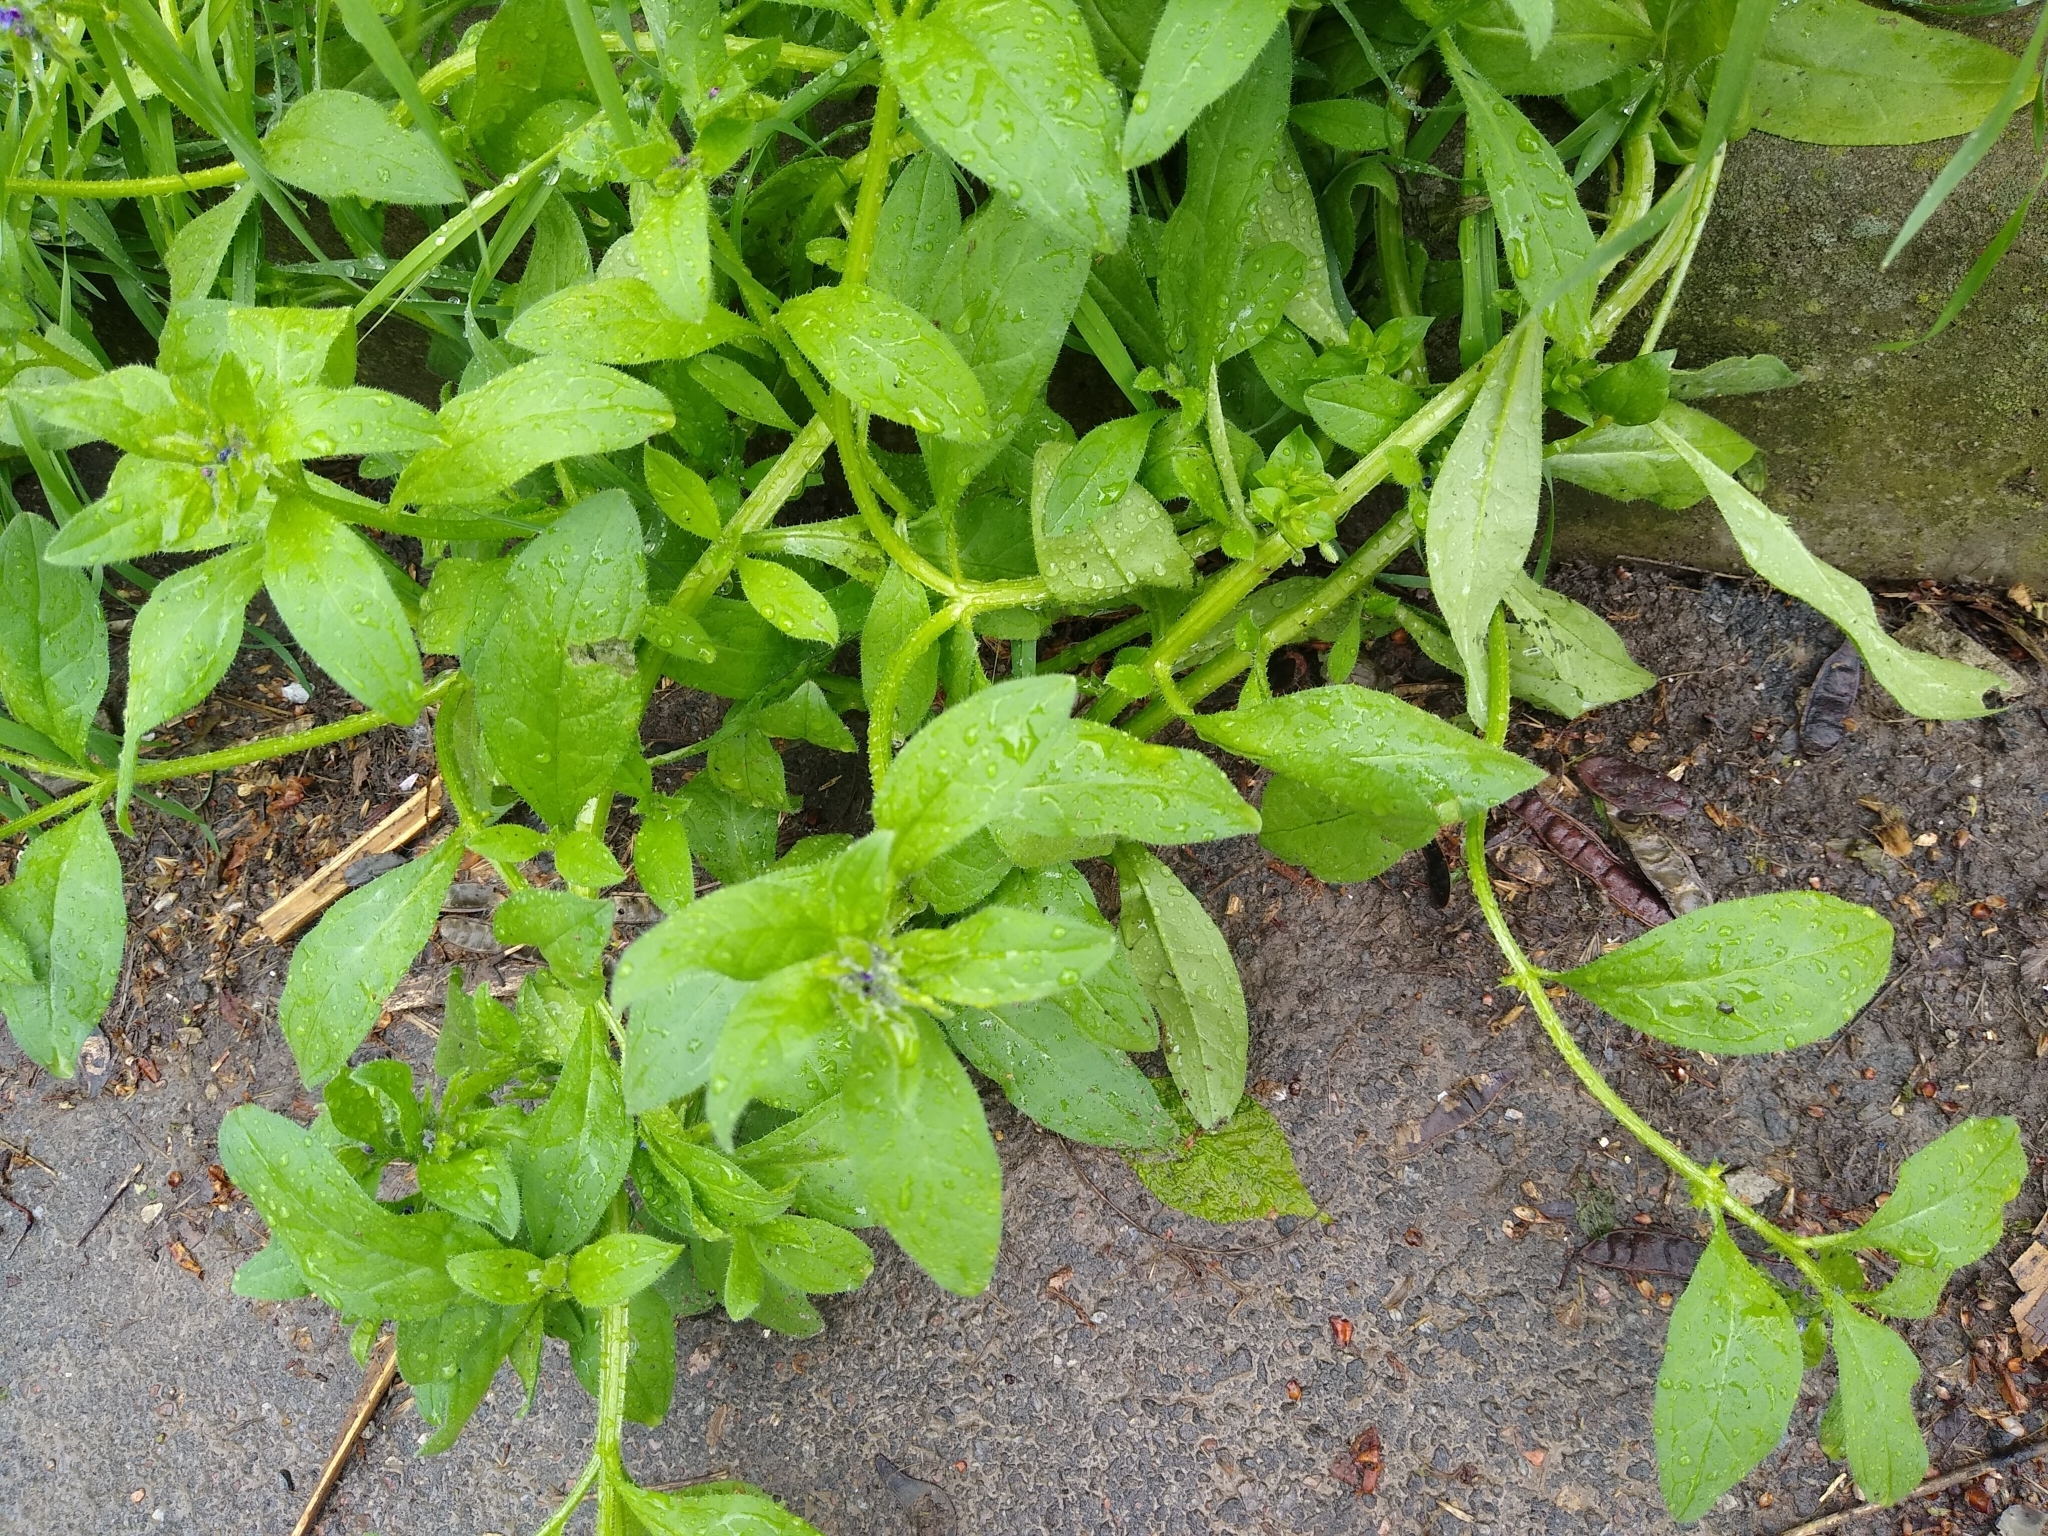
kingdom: Plantae
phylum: Tracheophyta
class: Magnoliopsida
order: Boraginales
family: Boraginaceae
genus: Asperugo
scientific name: Asperugo procumbens
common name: Madwort
